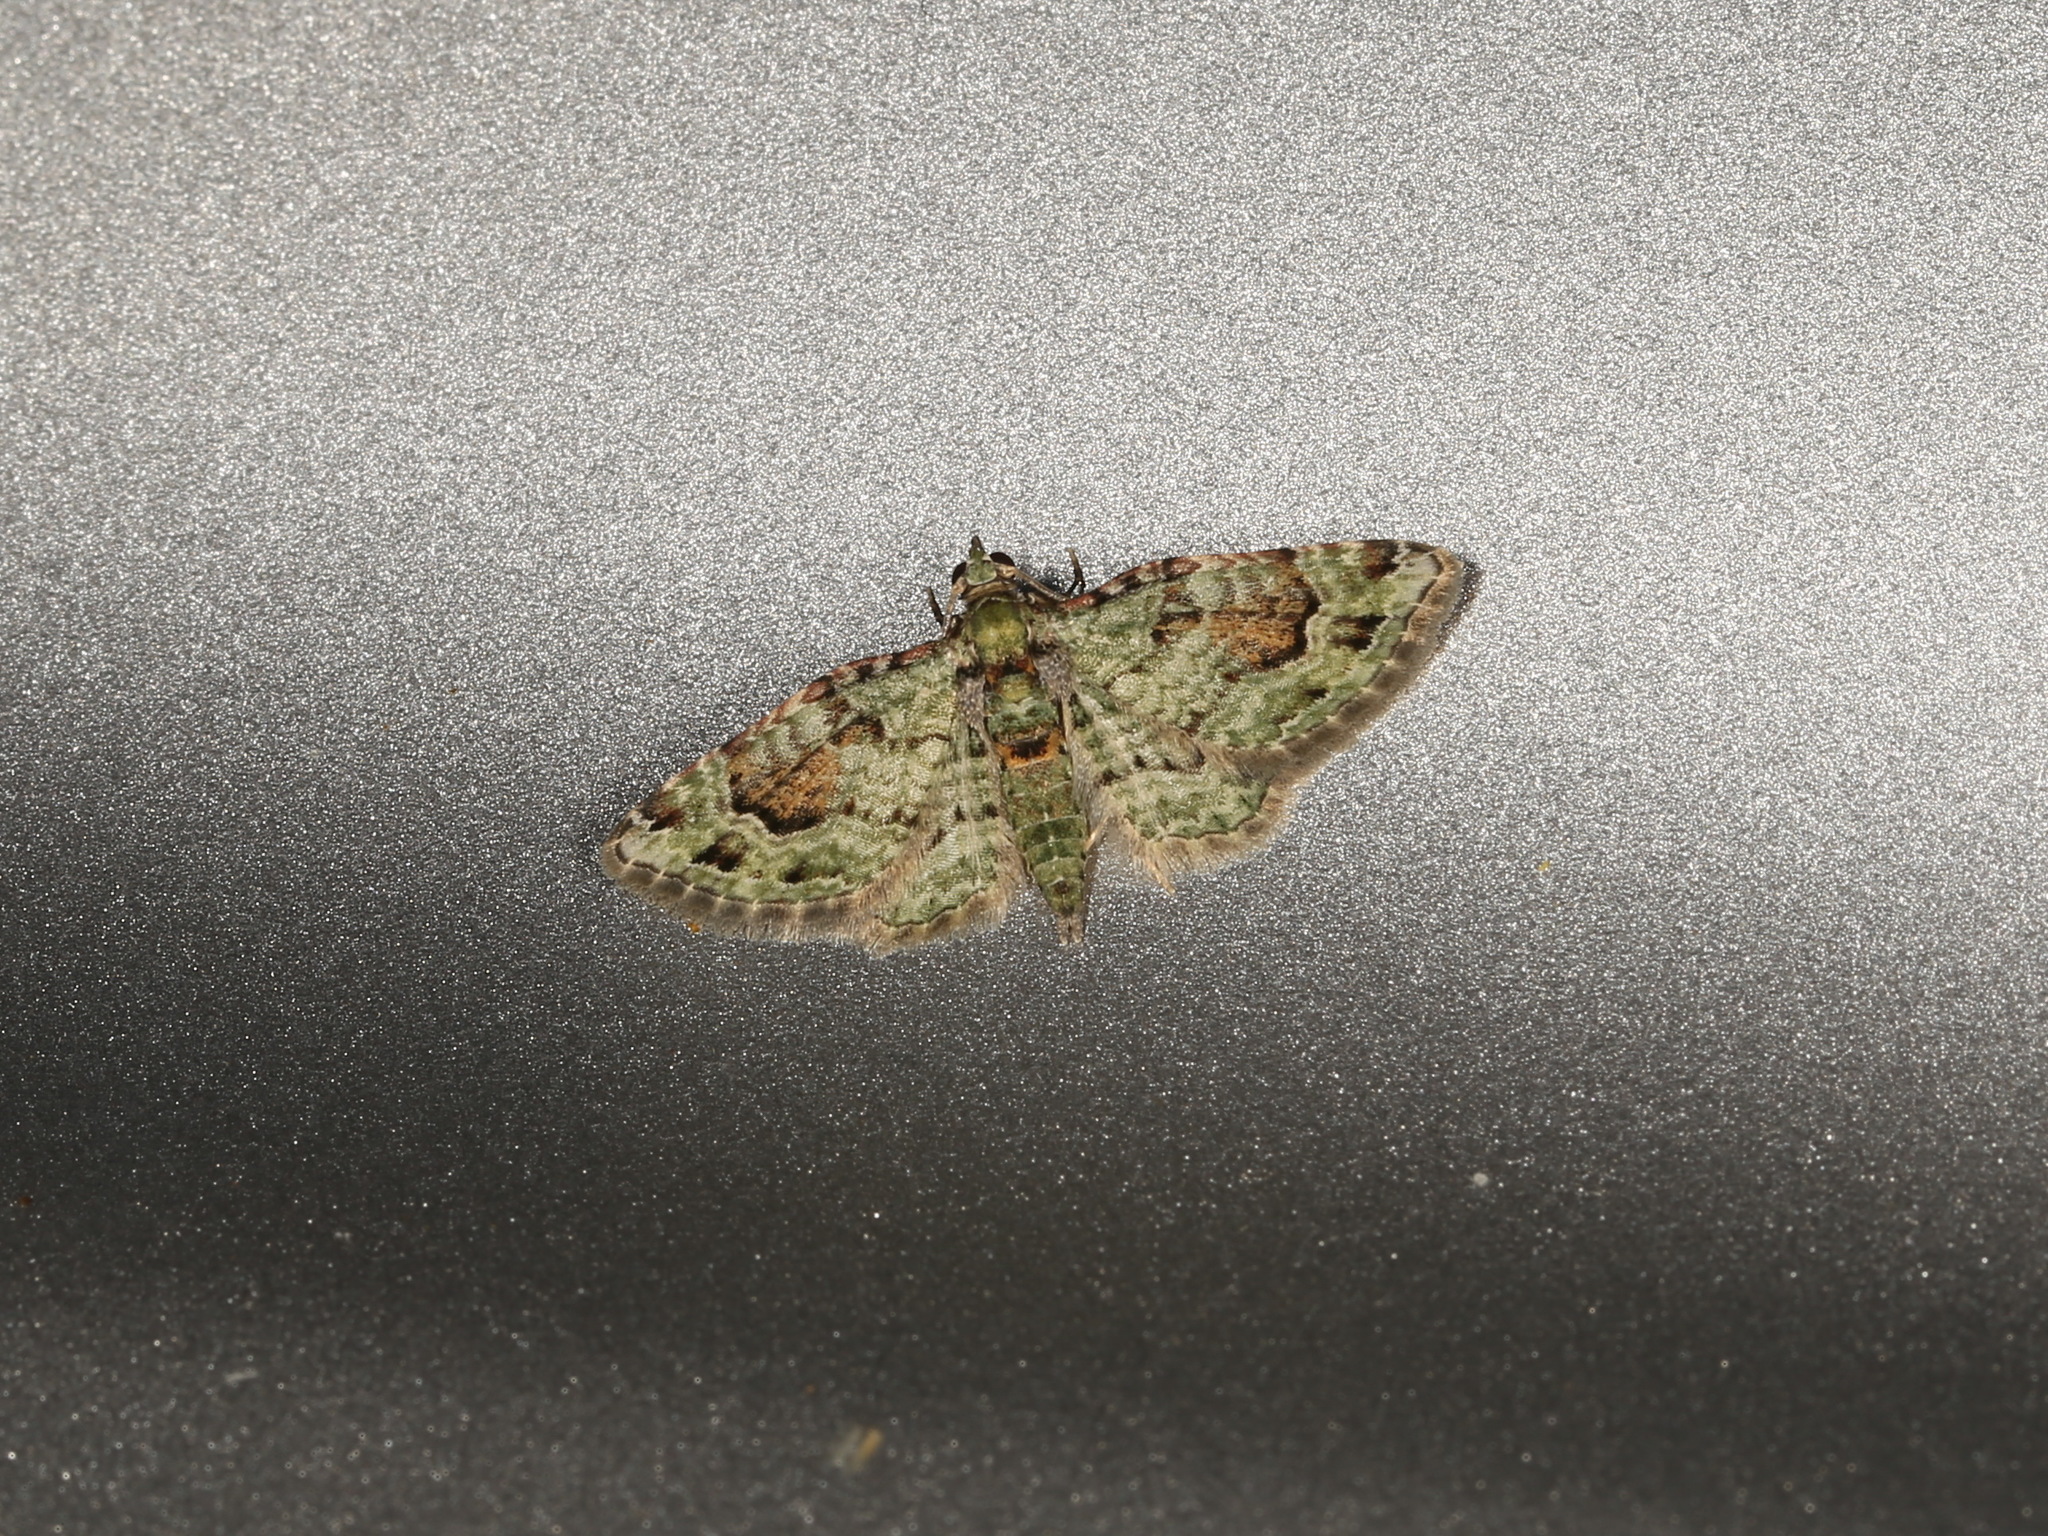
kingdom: Animalia
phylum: Arthropoda
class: Insecta
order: Lepidoptera
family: Geometridae
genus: Calluga
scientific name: Calluga costalis
